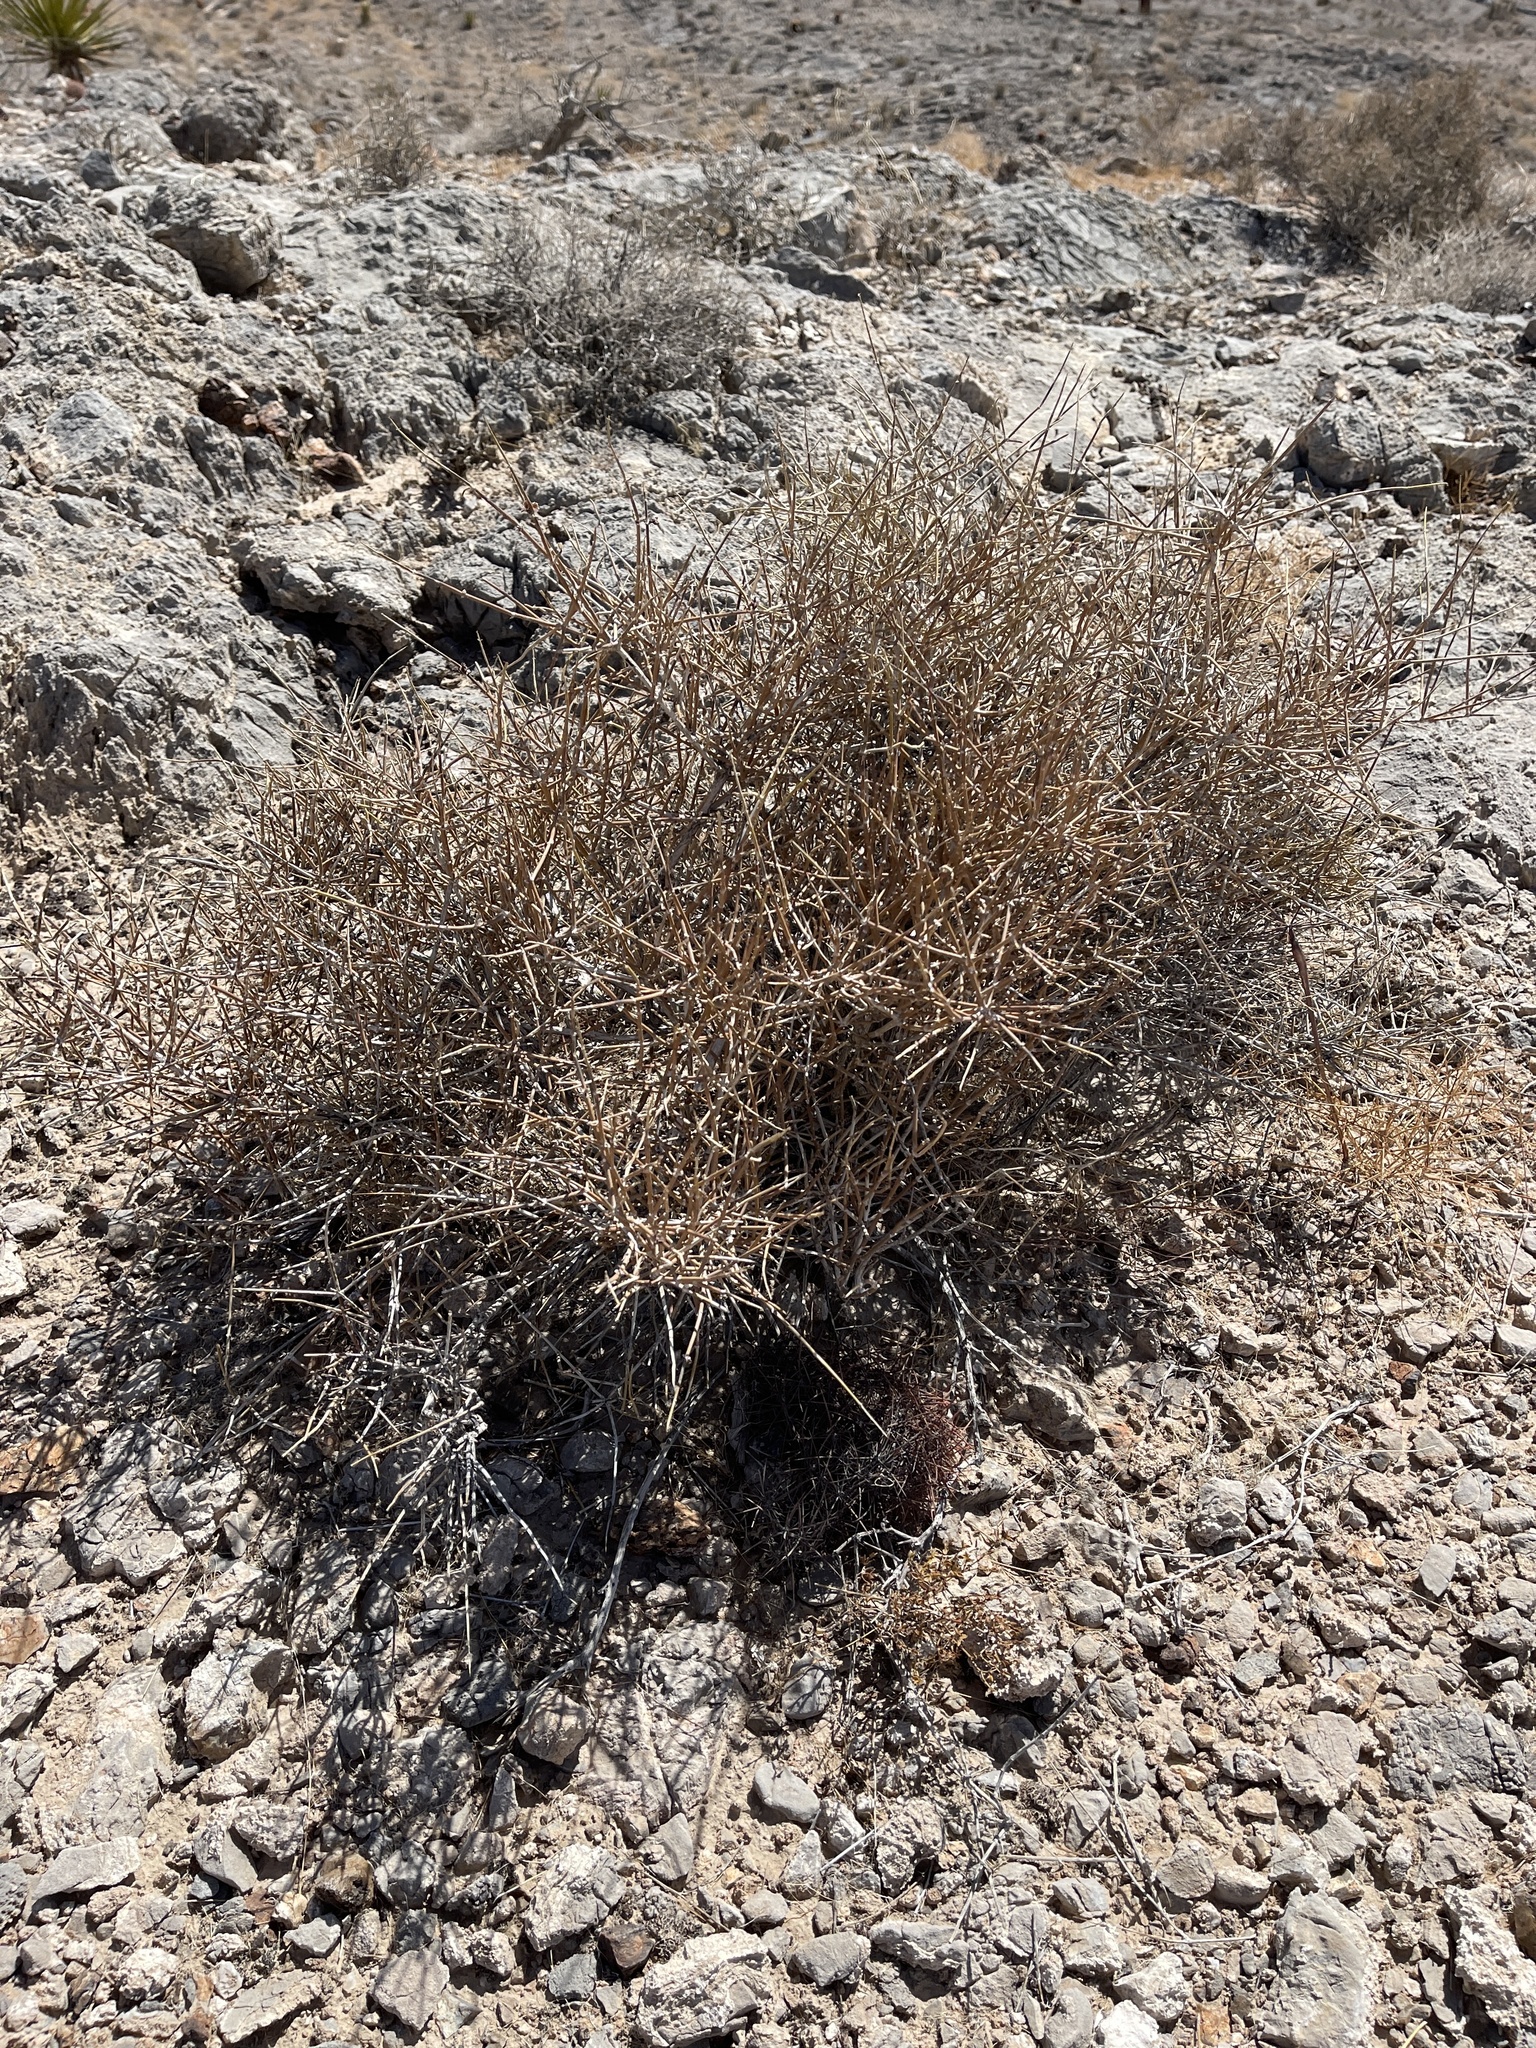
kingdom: Plantae
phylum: Tracheophyta
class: Gnetopsida
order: Ephedrales
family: Ephedraceae
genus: Ephedra
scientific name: Ephedra nevadensis
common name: Gray ephedra
